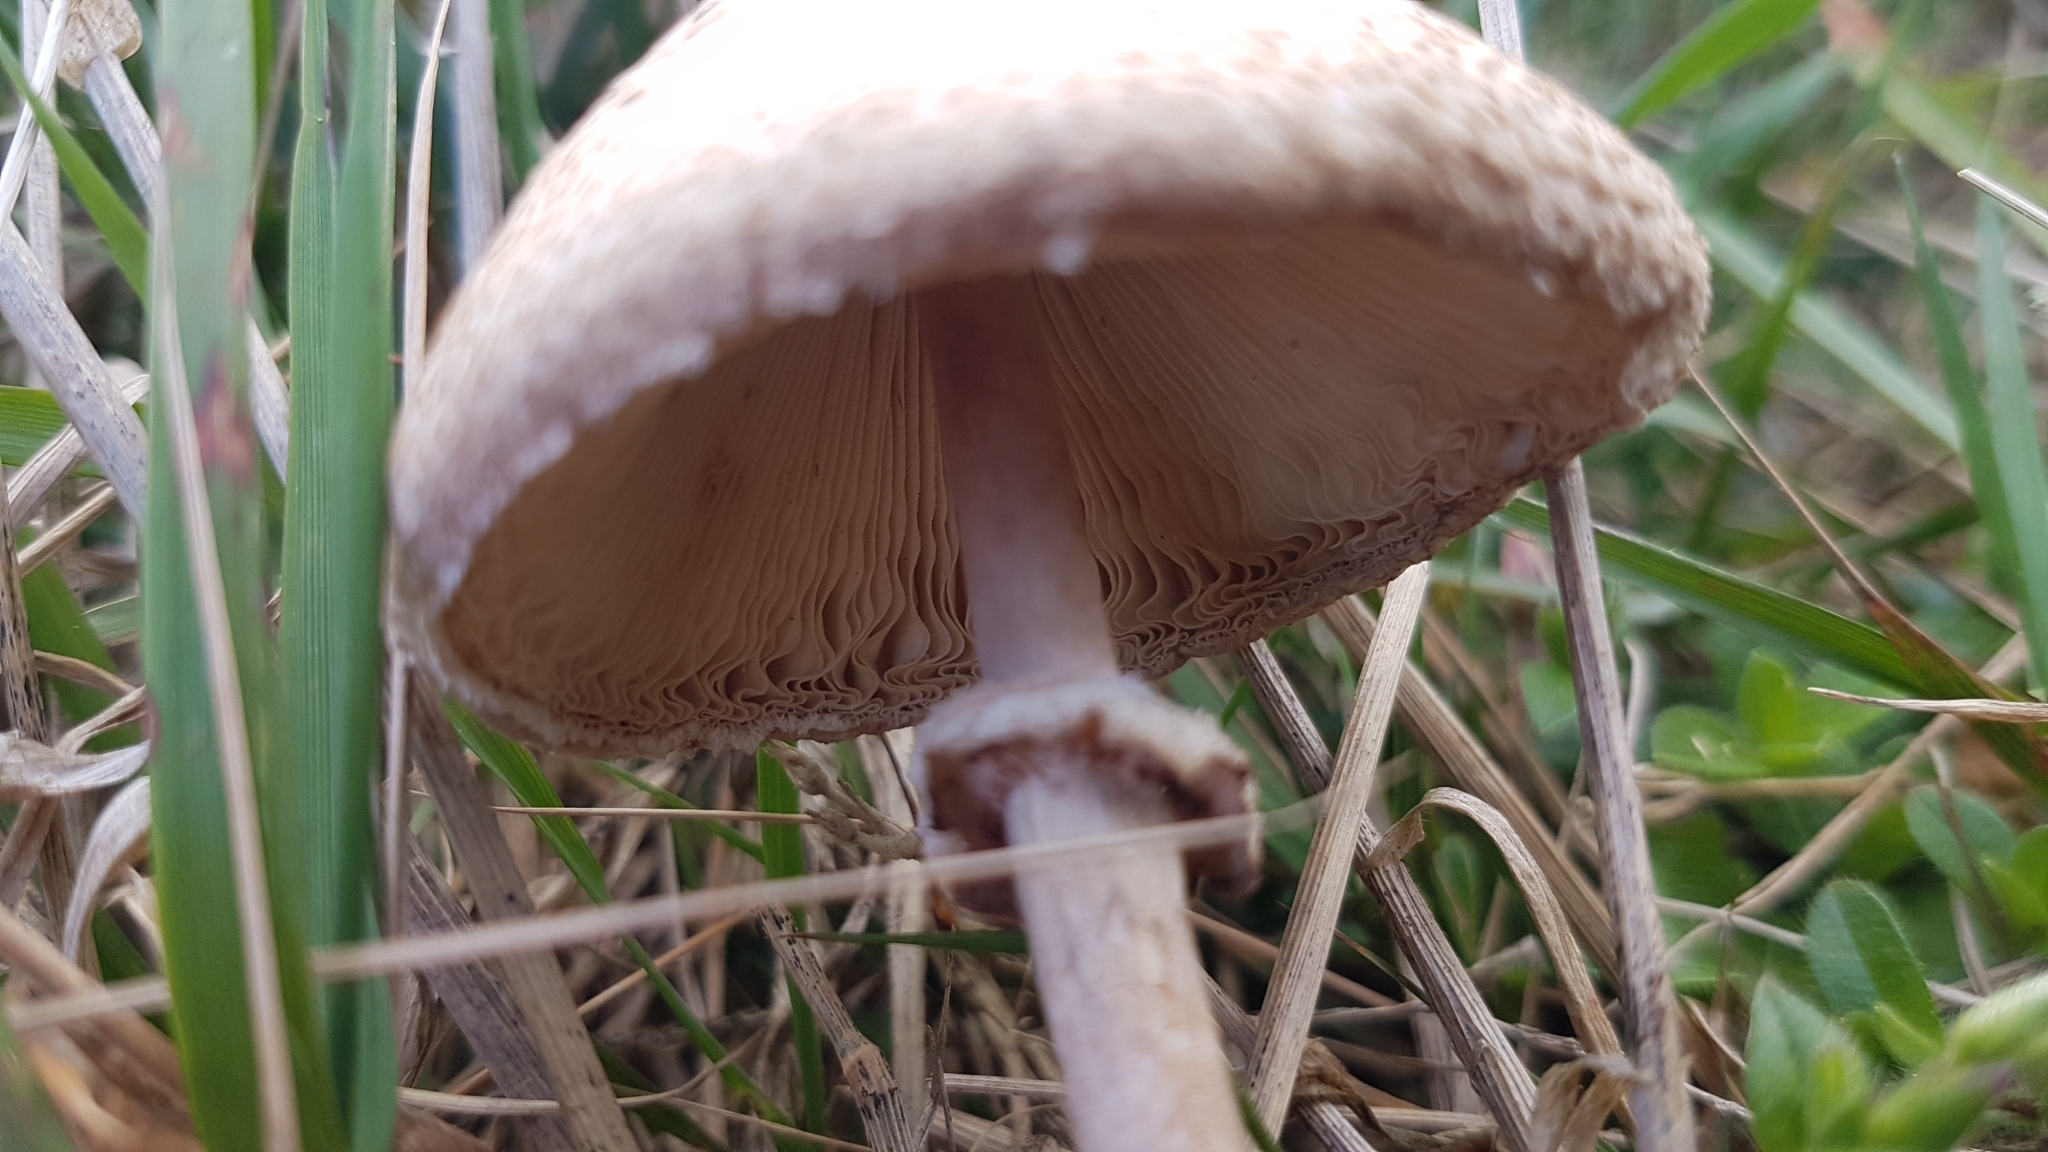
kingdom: Fungi
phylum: Basidiomycota
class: Agaricomycetes
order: Agaricales
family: Agaricaceae
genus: Macrolepiota
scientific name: Macrolepiota clelandii
